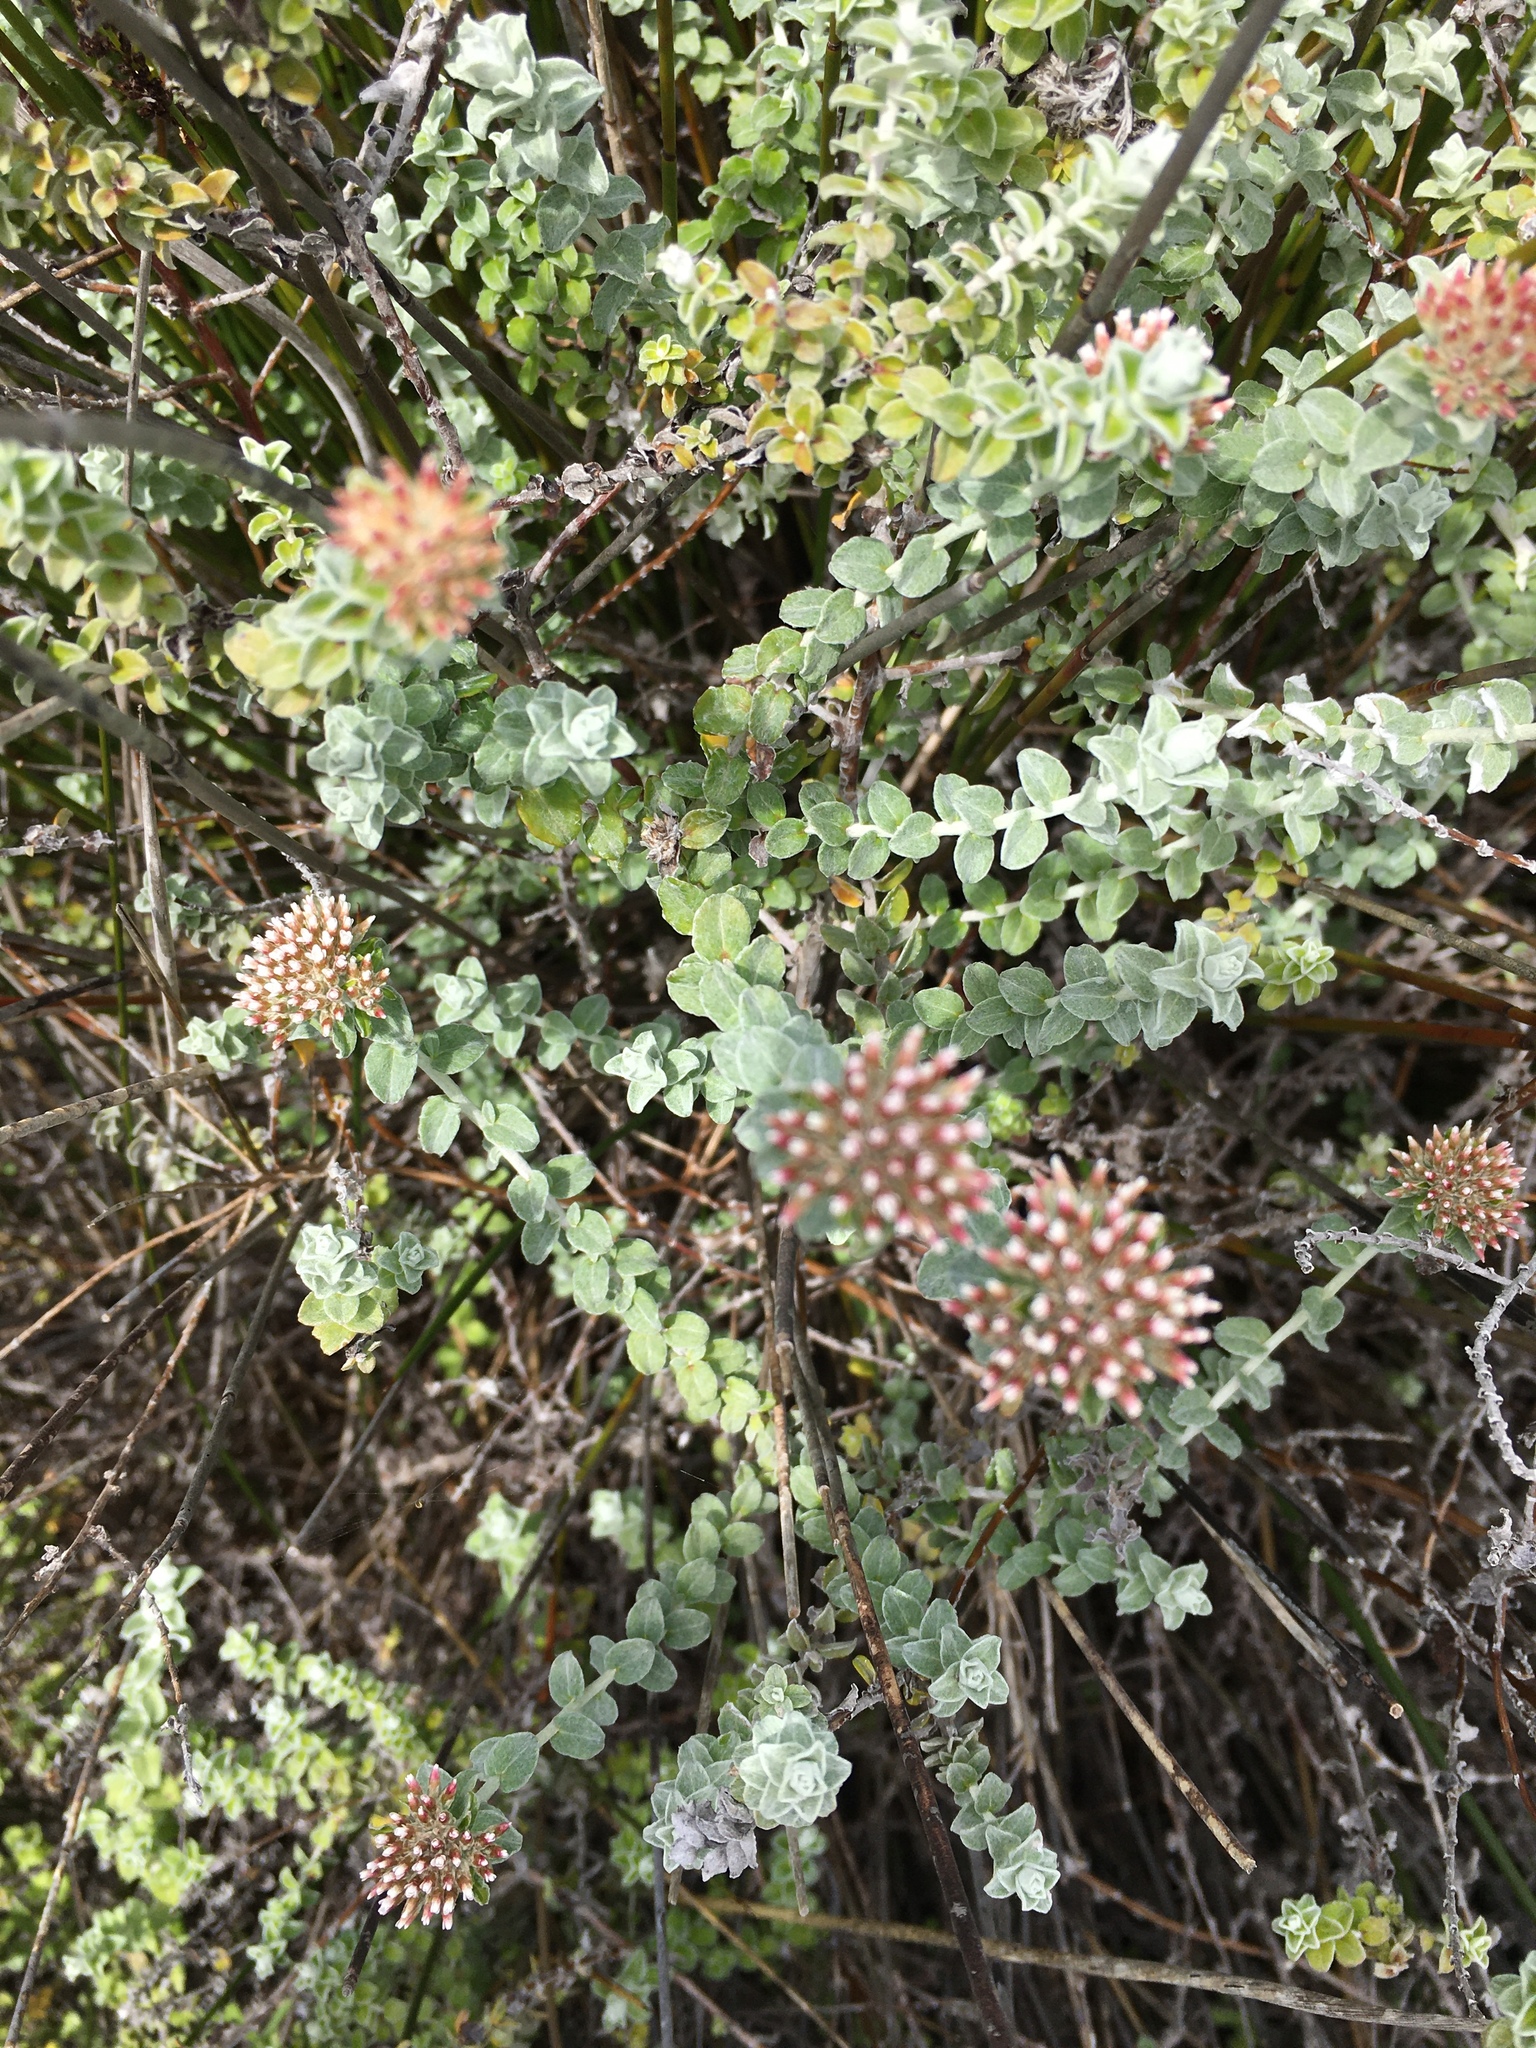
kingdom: Plantae
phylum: Tracheophyta
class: Magnoliopsida
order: Asterales
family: Asteraceae
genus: Plecostachys
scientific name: Plecostachys serpyllifolia
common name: Petite licorice
